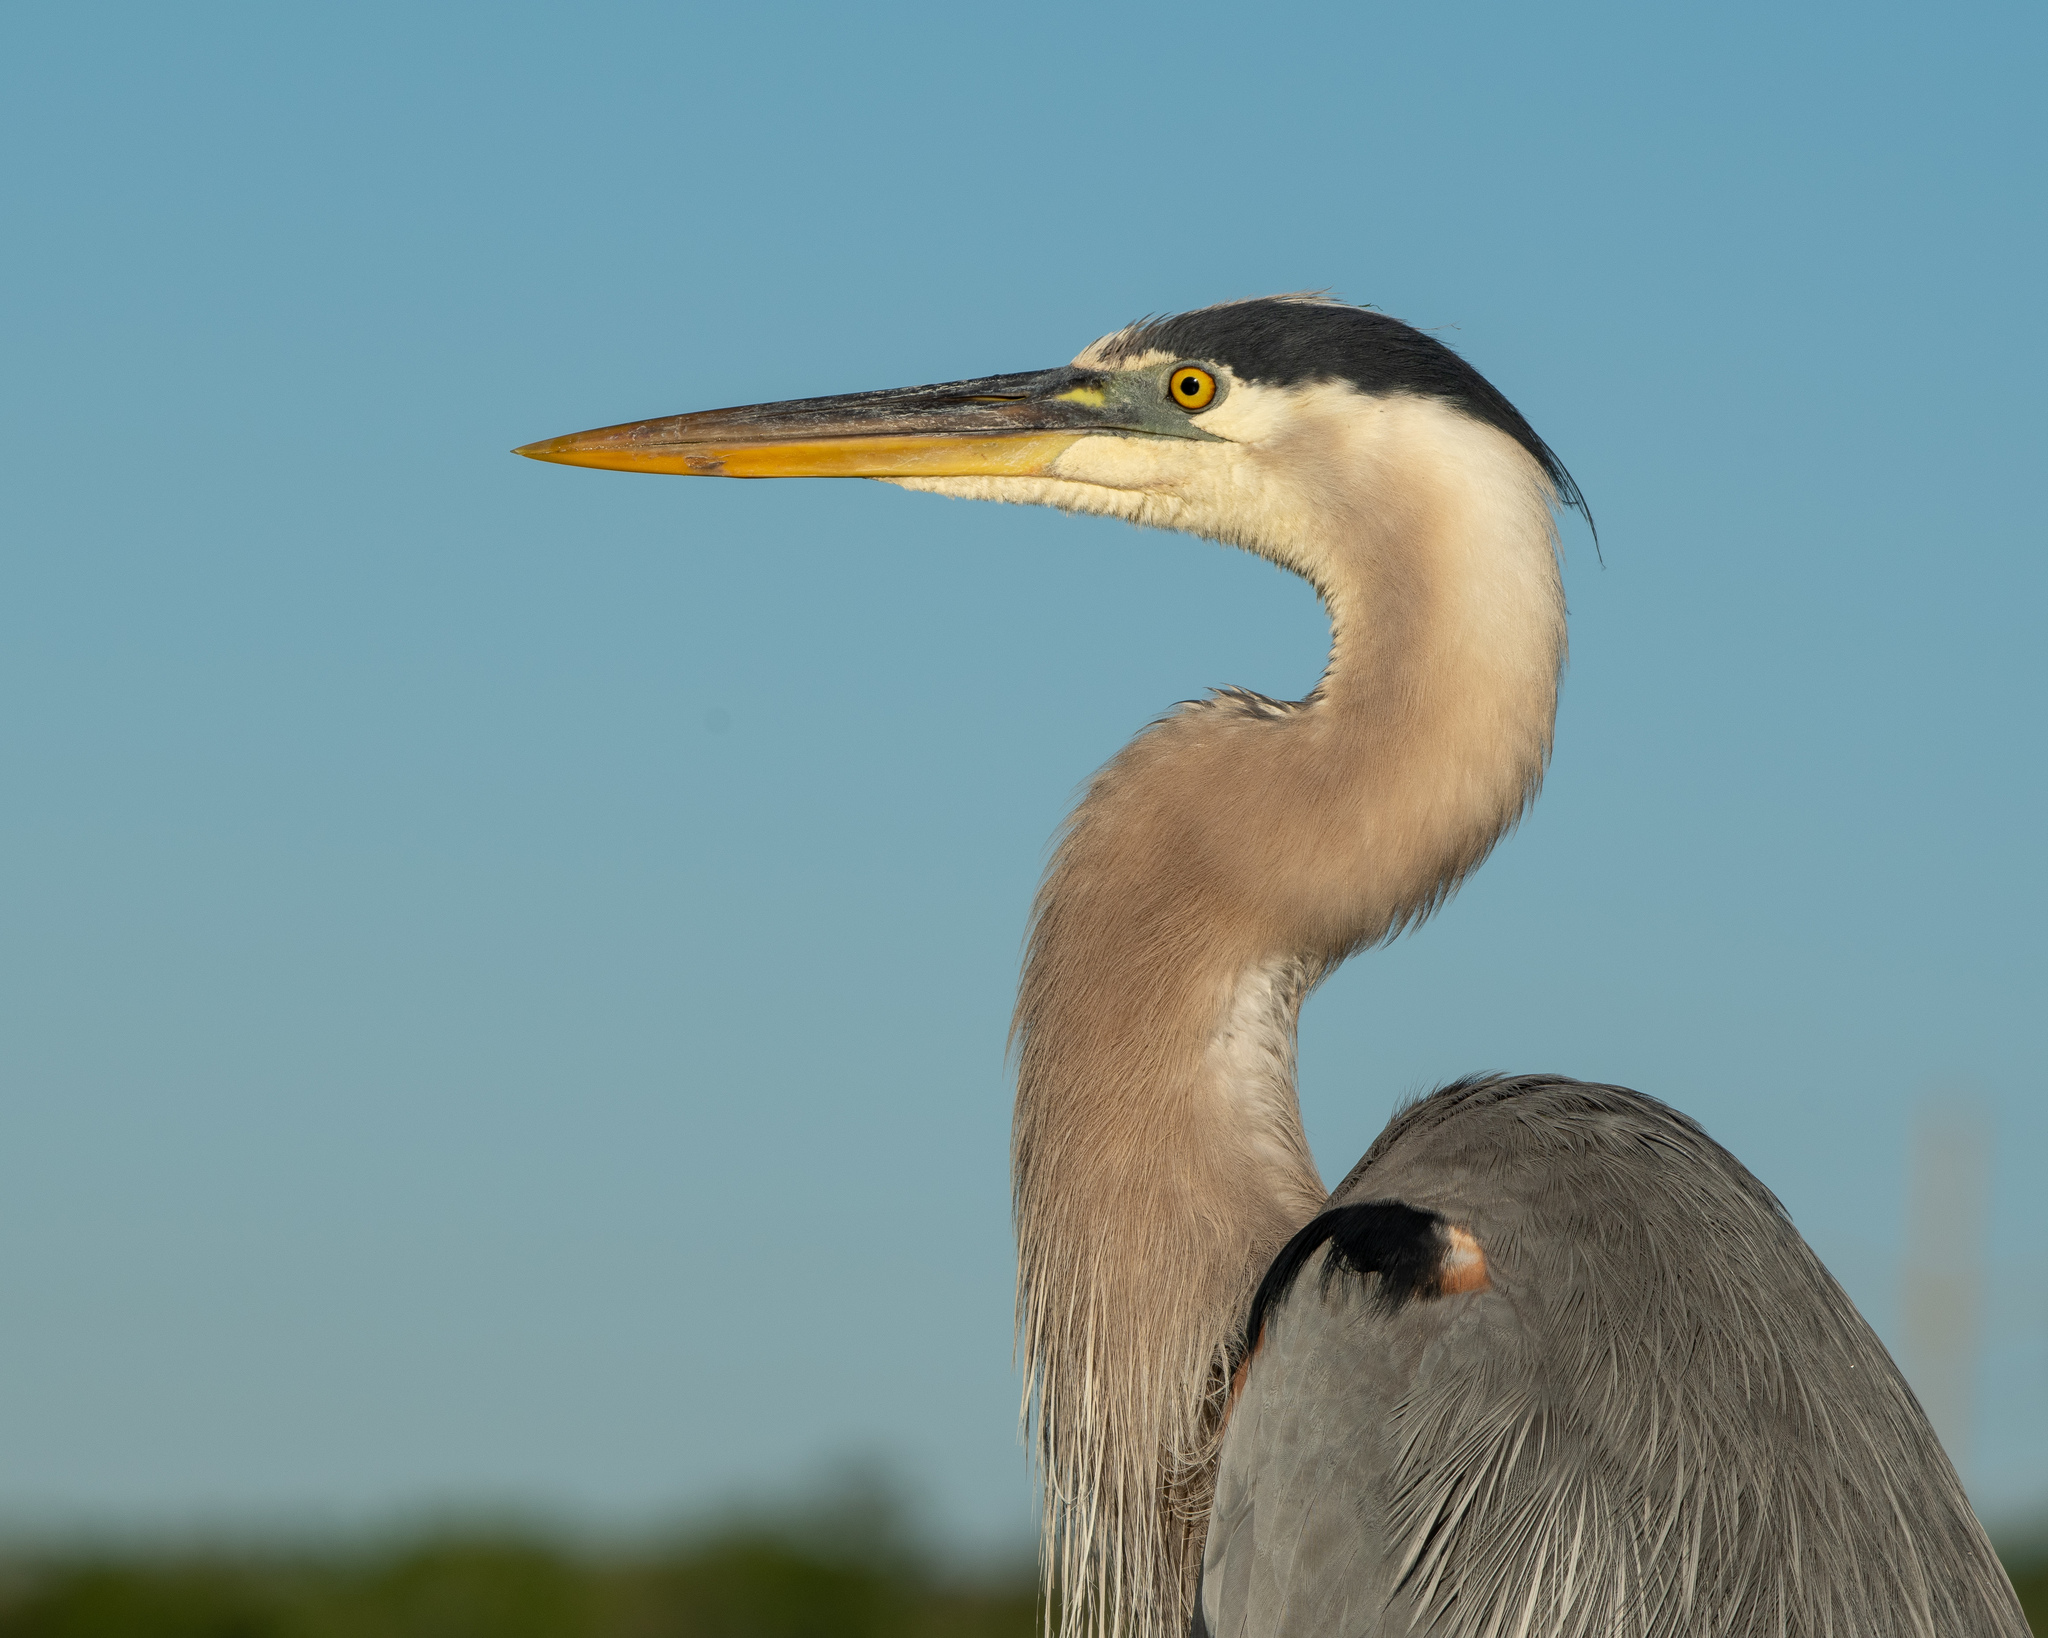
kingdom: Animalia
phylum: Chordata
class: Aves
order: Pelecaniformes
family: Ardeidae
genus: Ardea
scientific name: Ardea herodias
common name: Great blue heron
